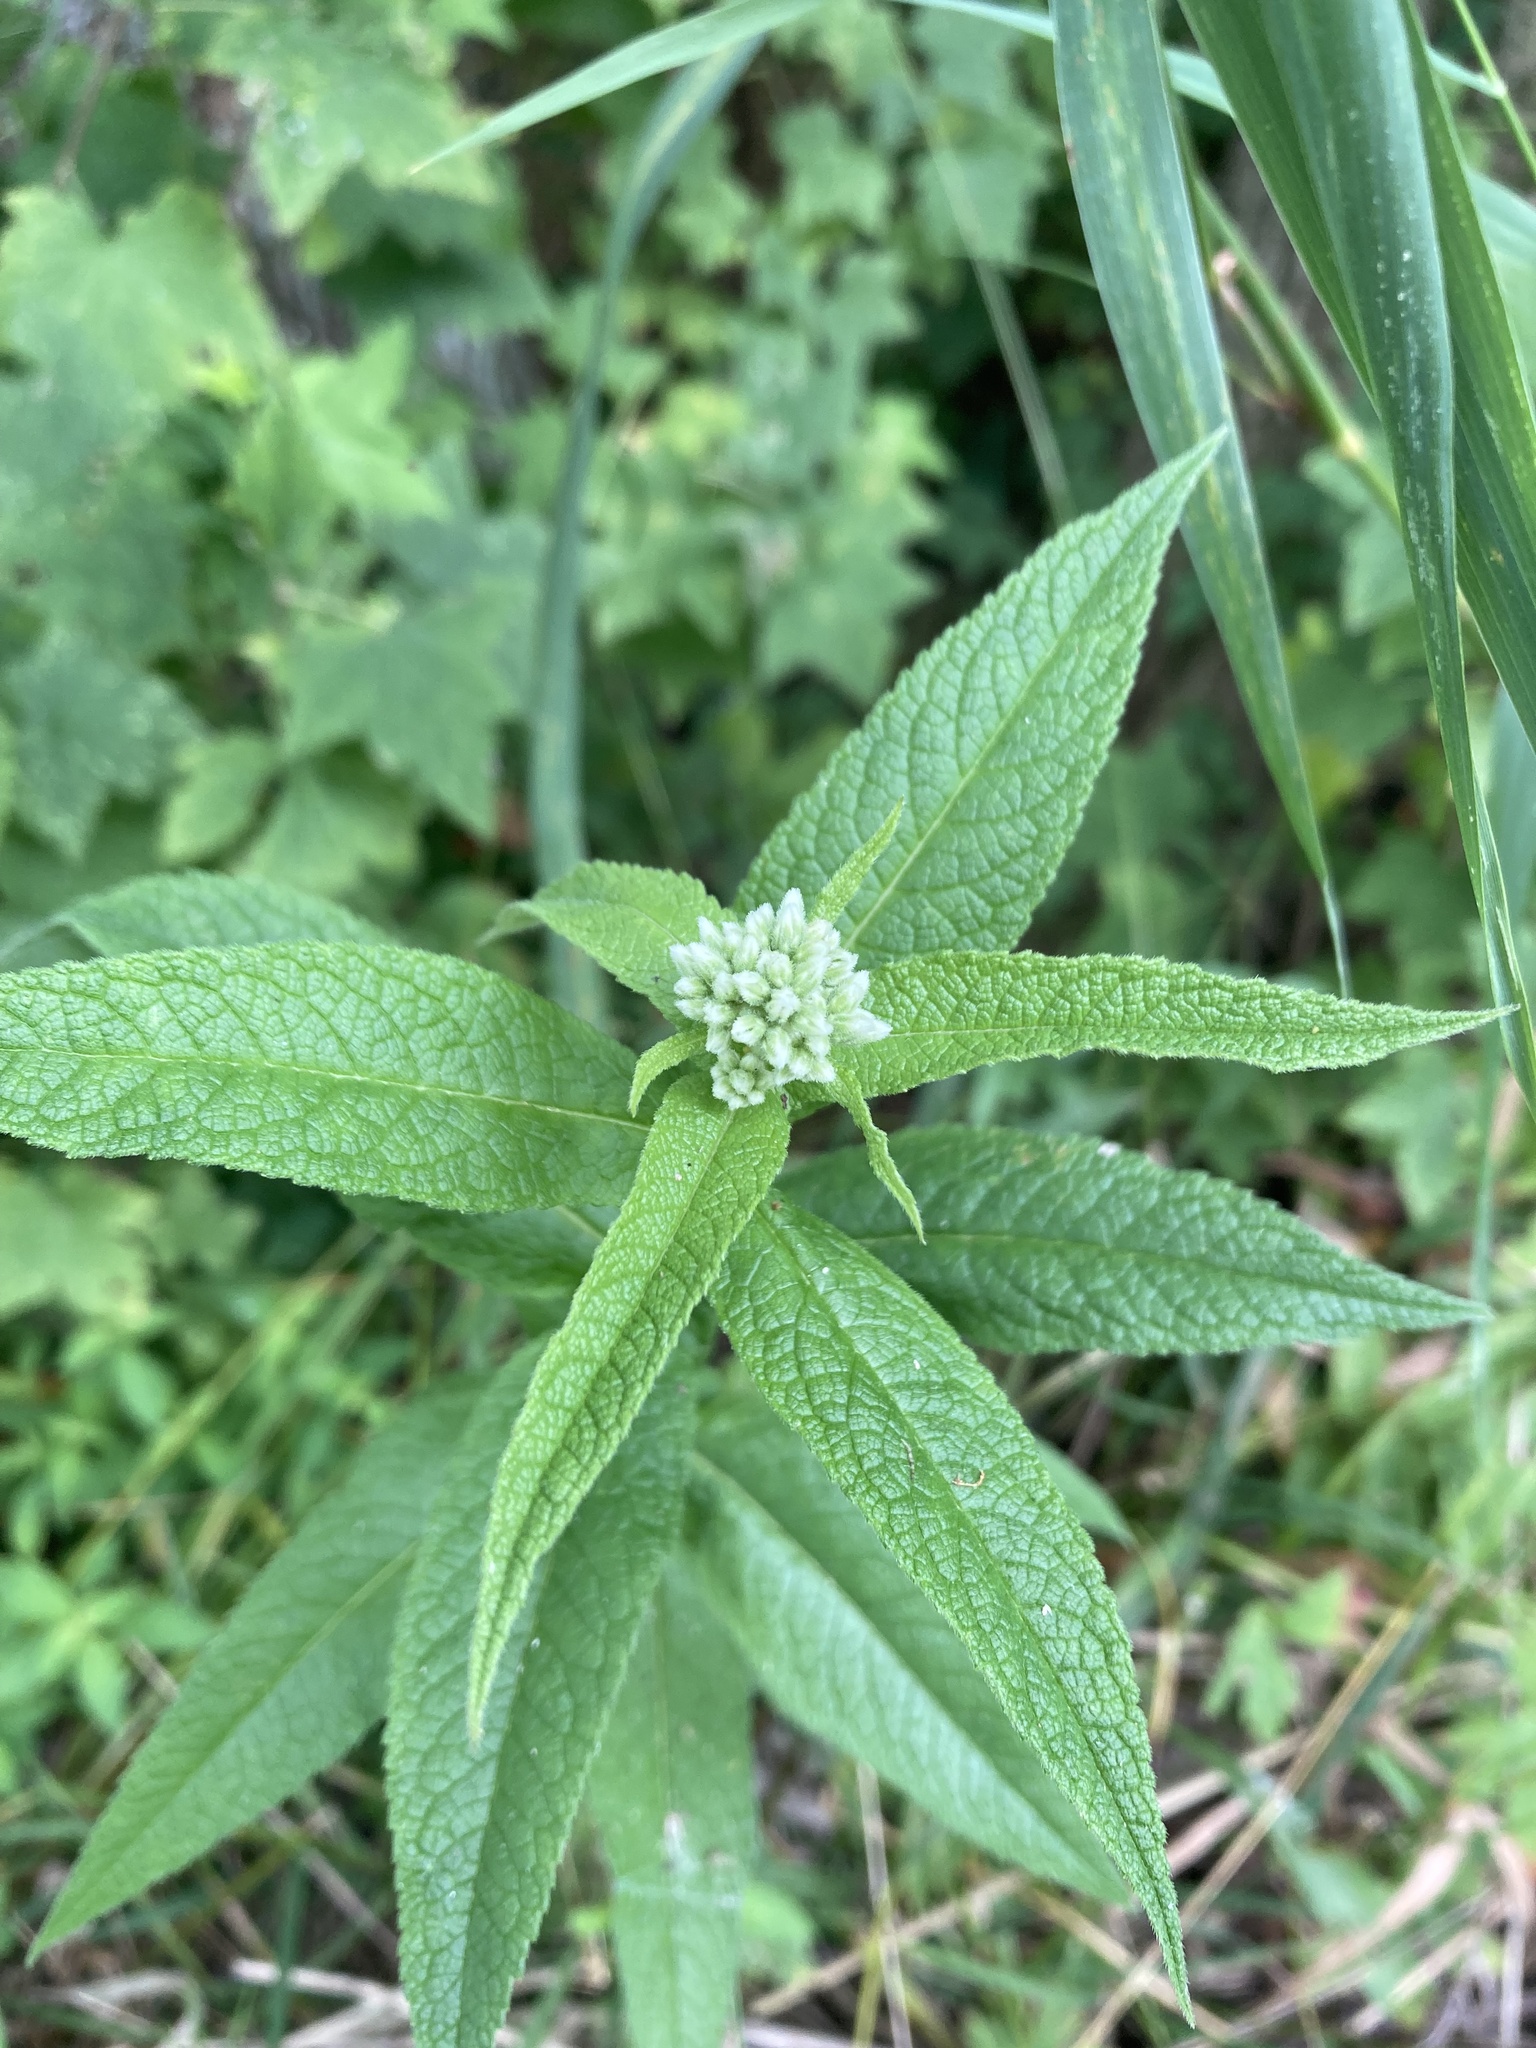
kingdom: Plantae
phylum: Tracheophyta
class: Magnoliopsida
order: Asterales
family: Asteraceae
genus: Eupatorium
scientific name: Eupatorium perfoliatum
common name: Boneset
